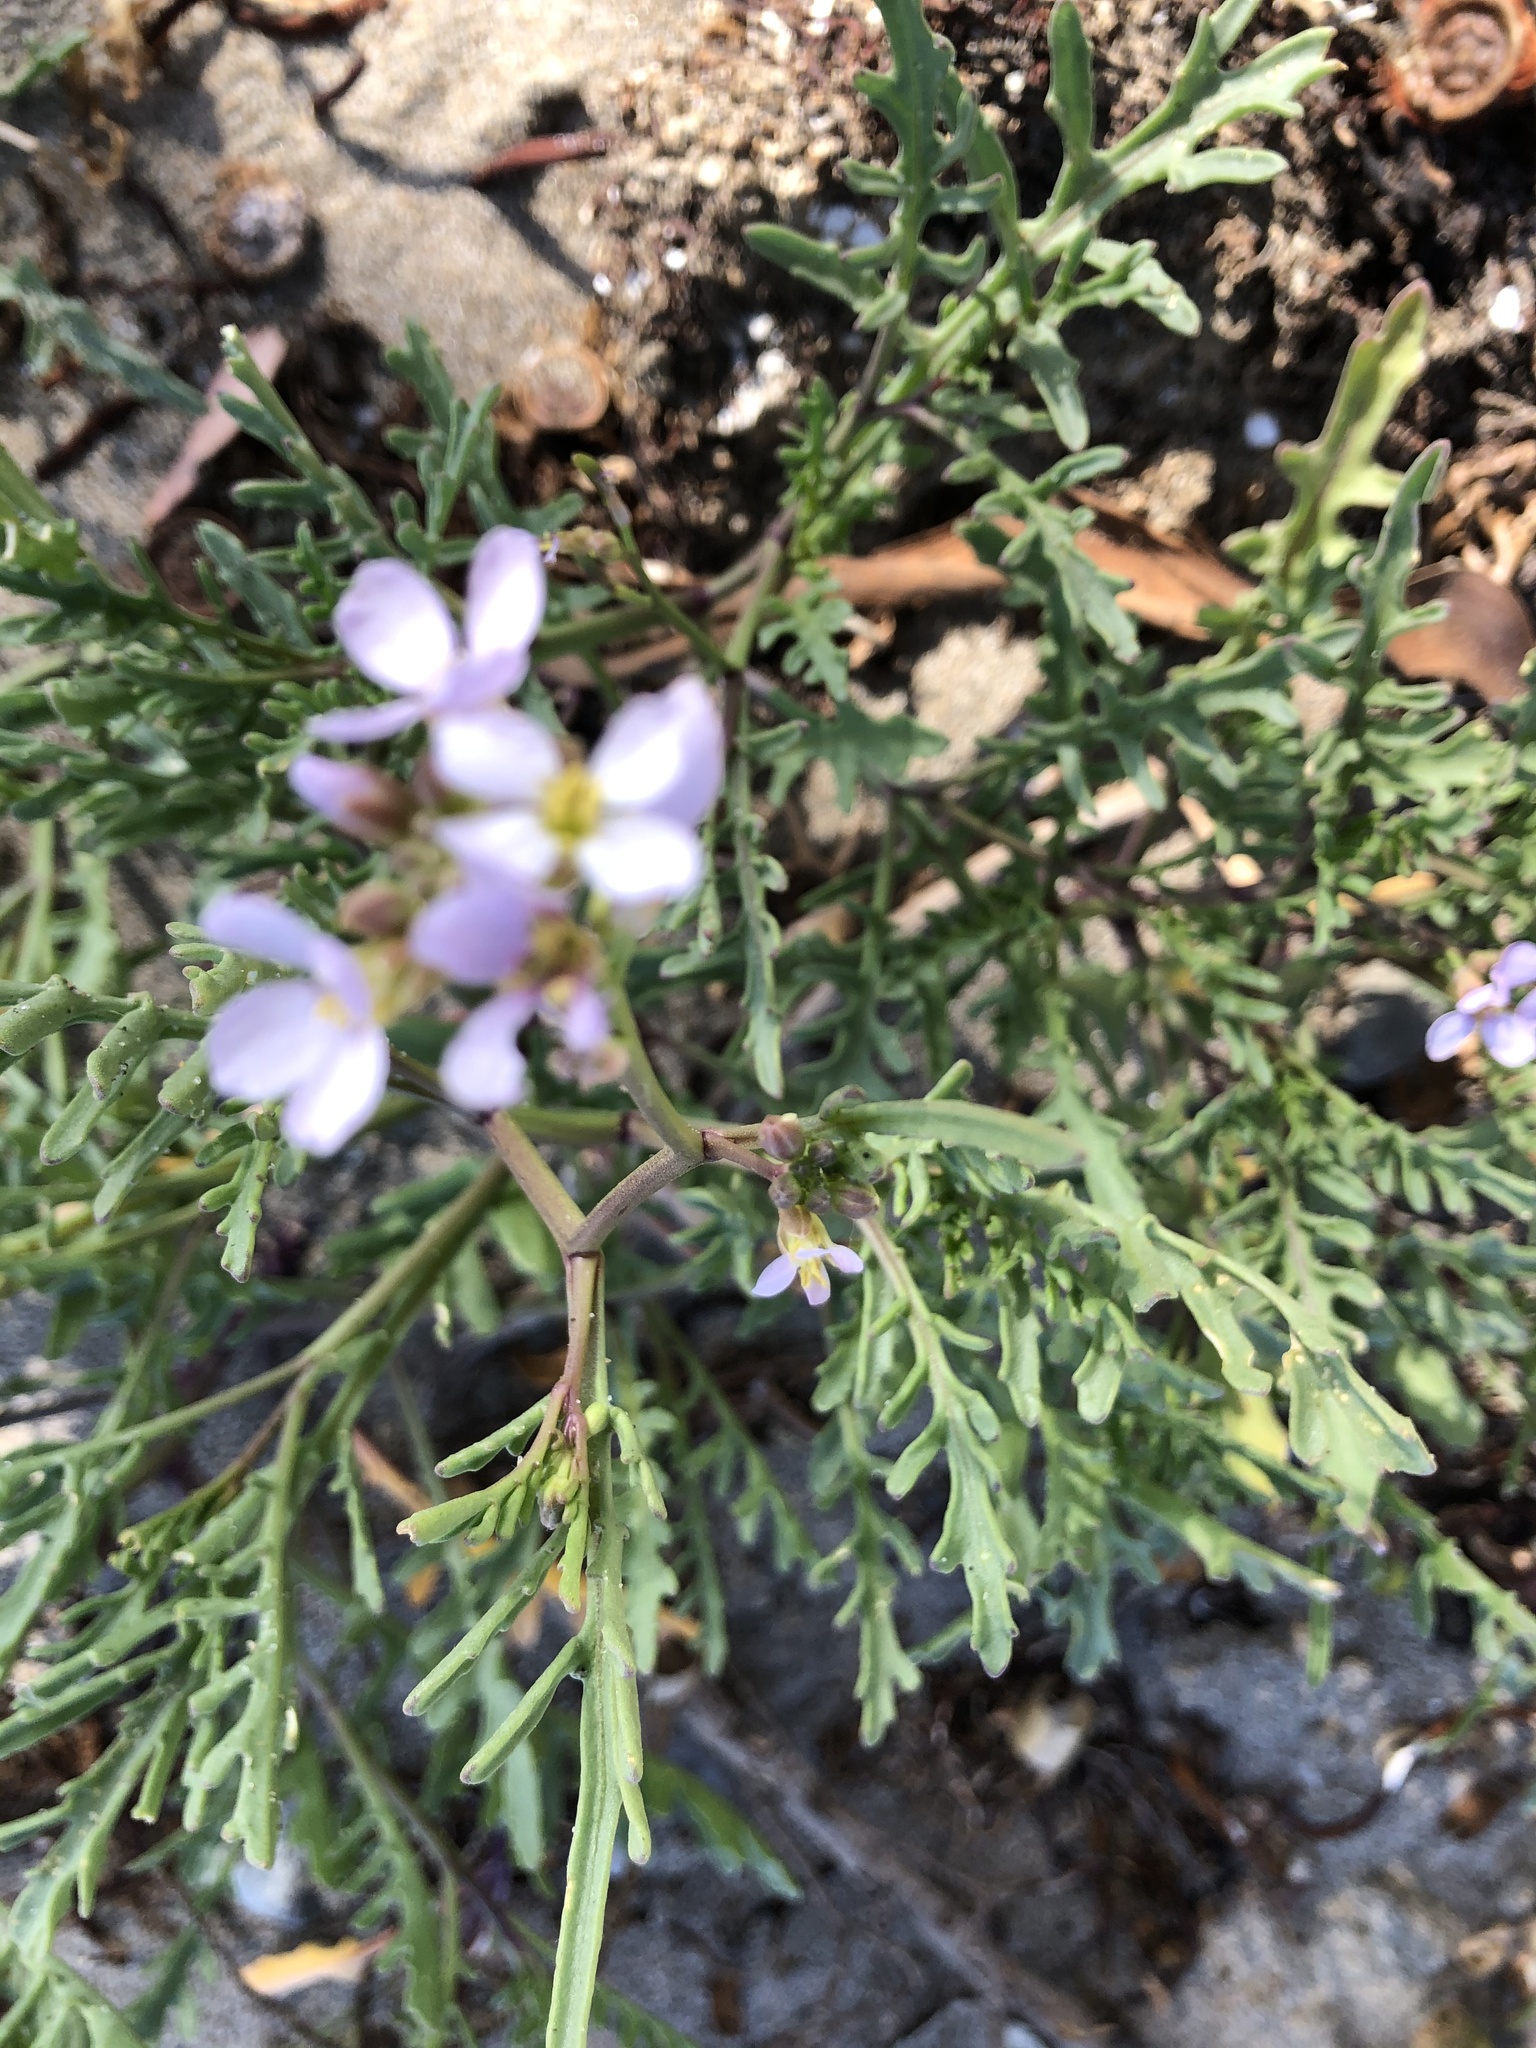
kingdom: Plantae
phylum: Tracheophyta
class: Magnoliopsida
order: Brassicales
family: Brassicaceae
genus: Cakile
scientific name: Cakile maritima
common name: Sea rocket
